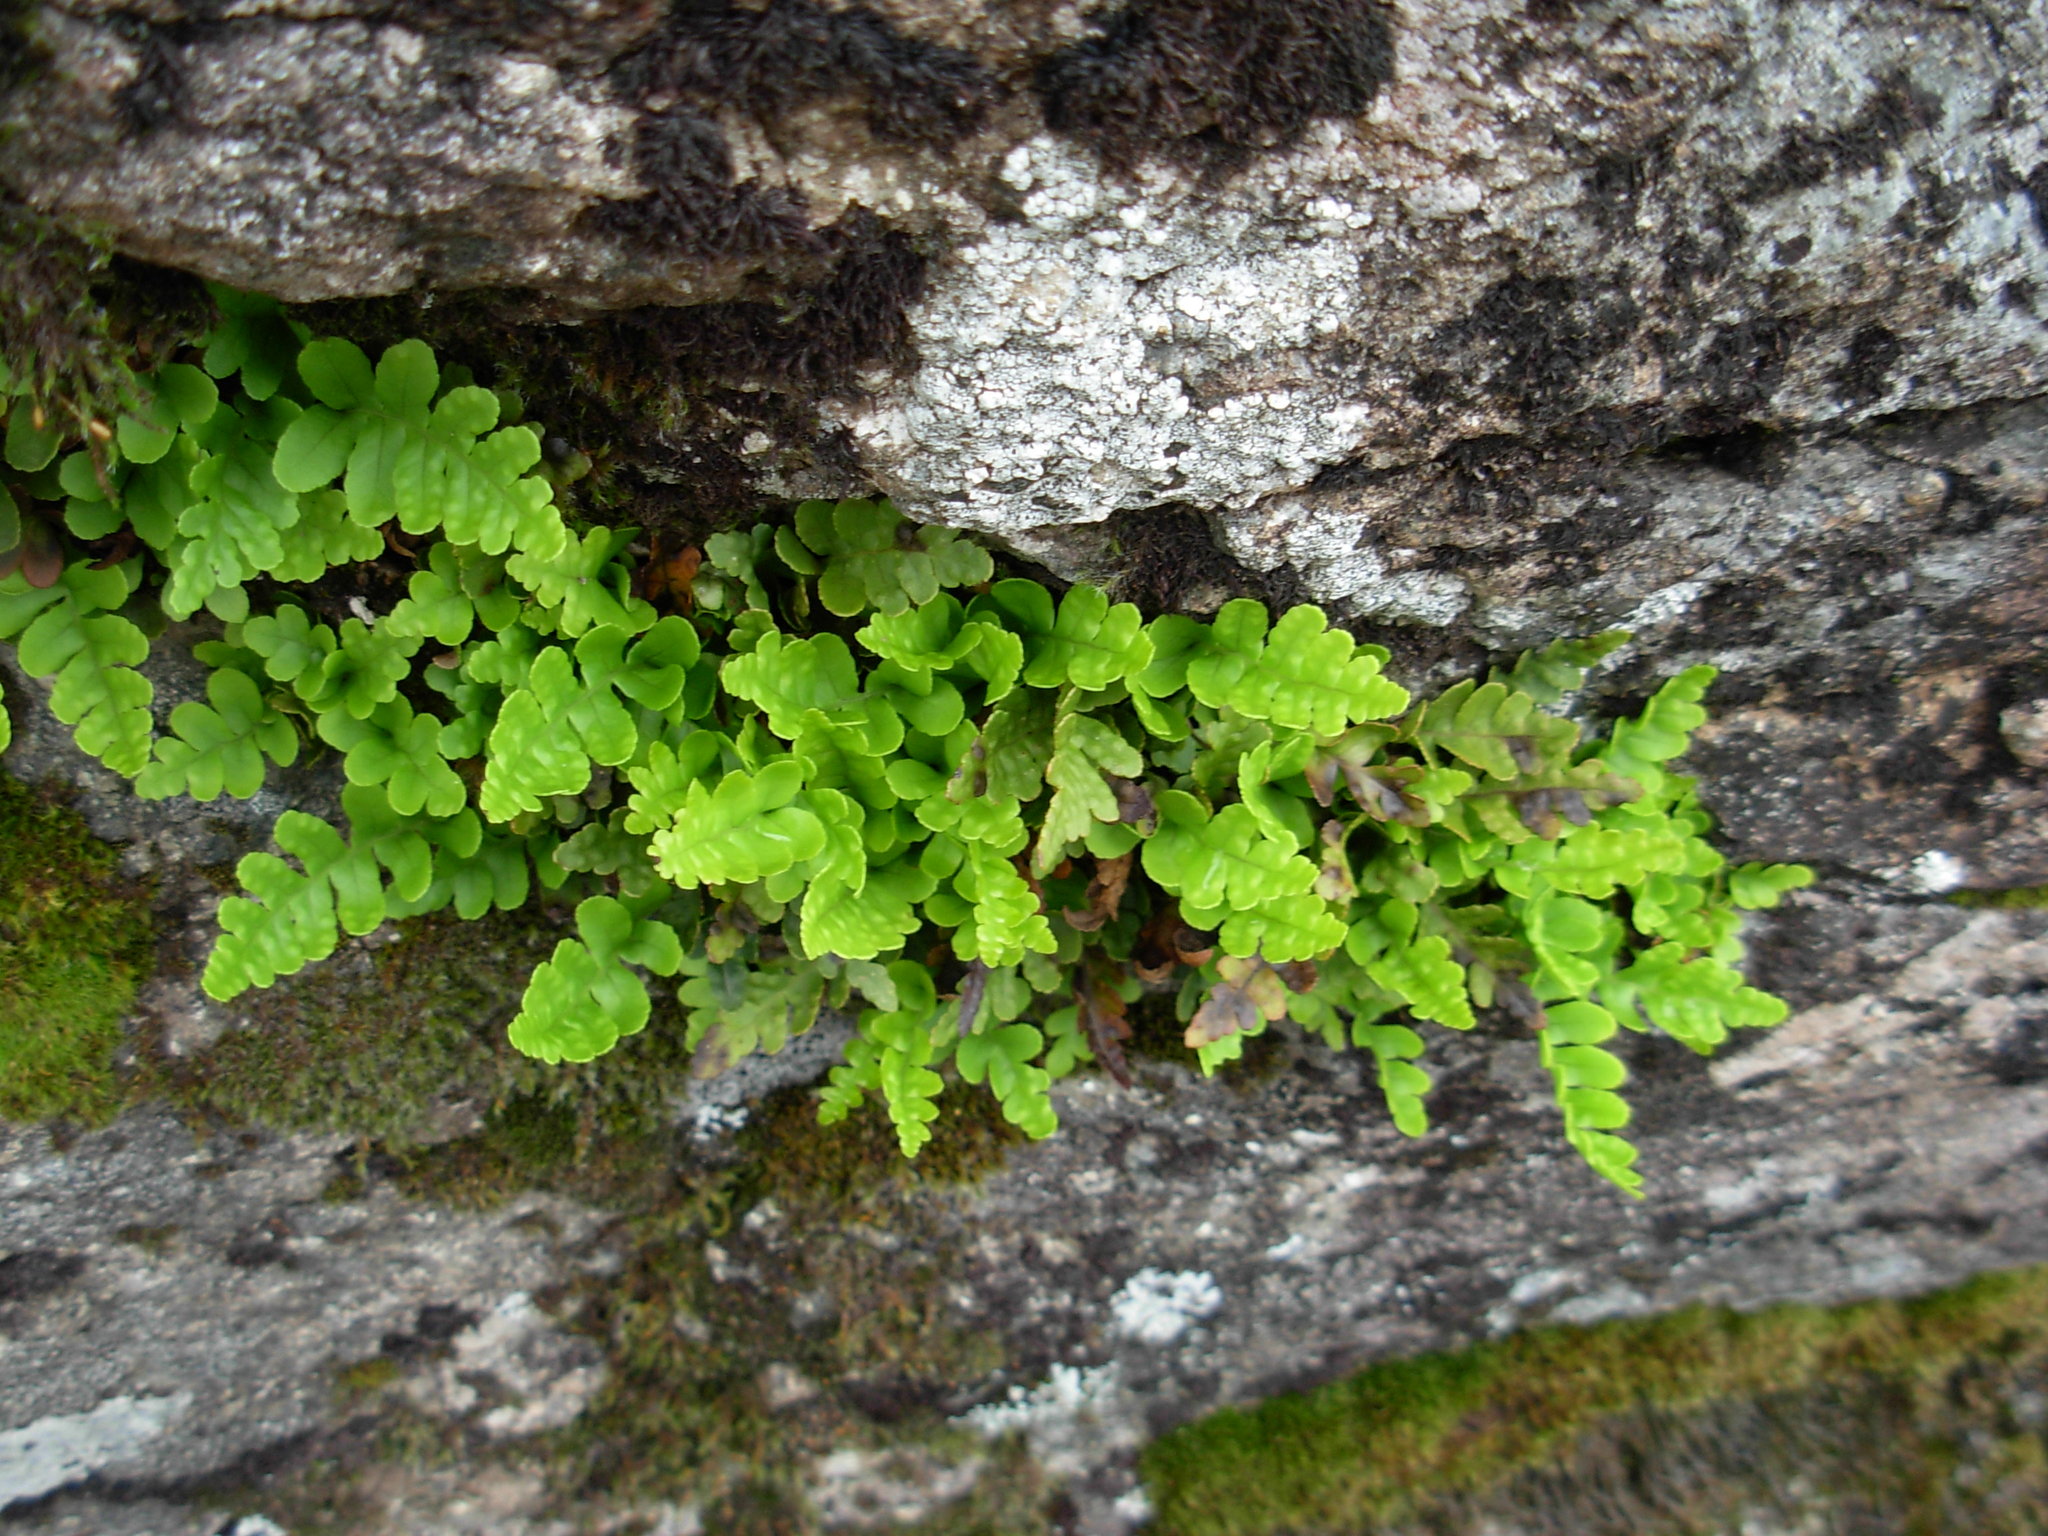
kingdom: Plantae
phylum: Tracheophyta
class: Polypodiopsida
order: Polypodiales
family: Polypodiaceae
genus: Polypodium
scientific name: Polypodium amorphum
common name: Pacific polypody
